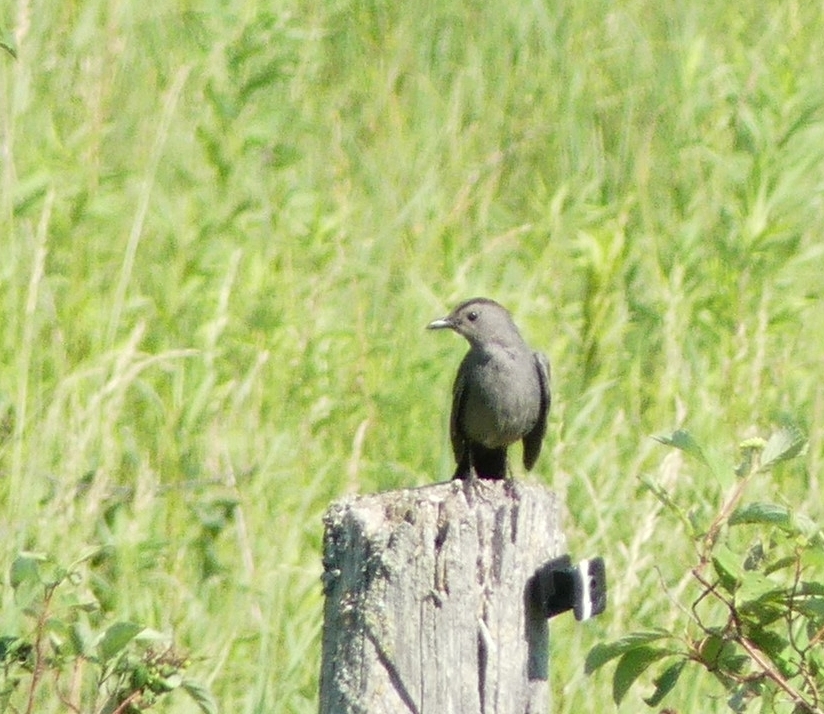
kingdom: Animalia
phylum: Chordata
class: Aves
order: Passeriformes
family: Mimidae
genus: Dumetella
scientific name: Dumetella carolinensis
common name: Gray catbird
